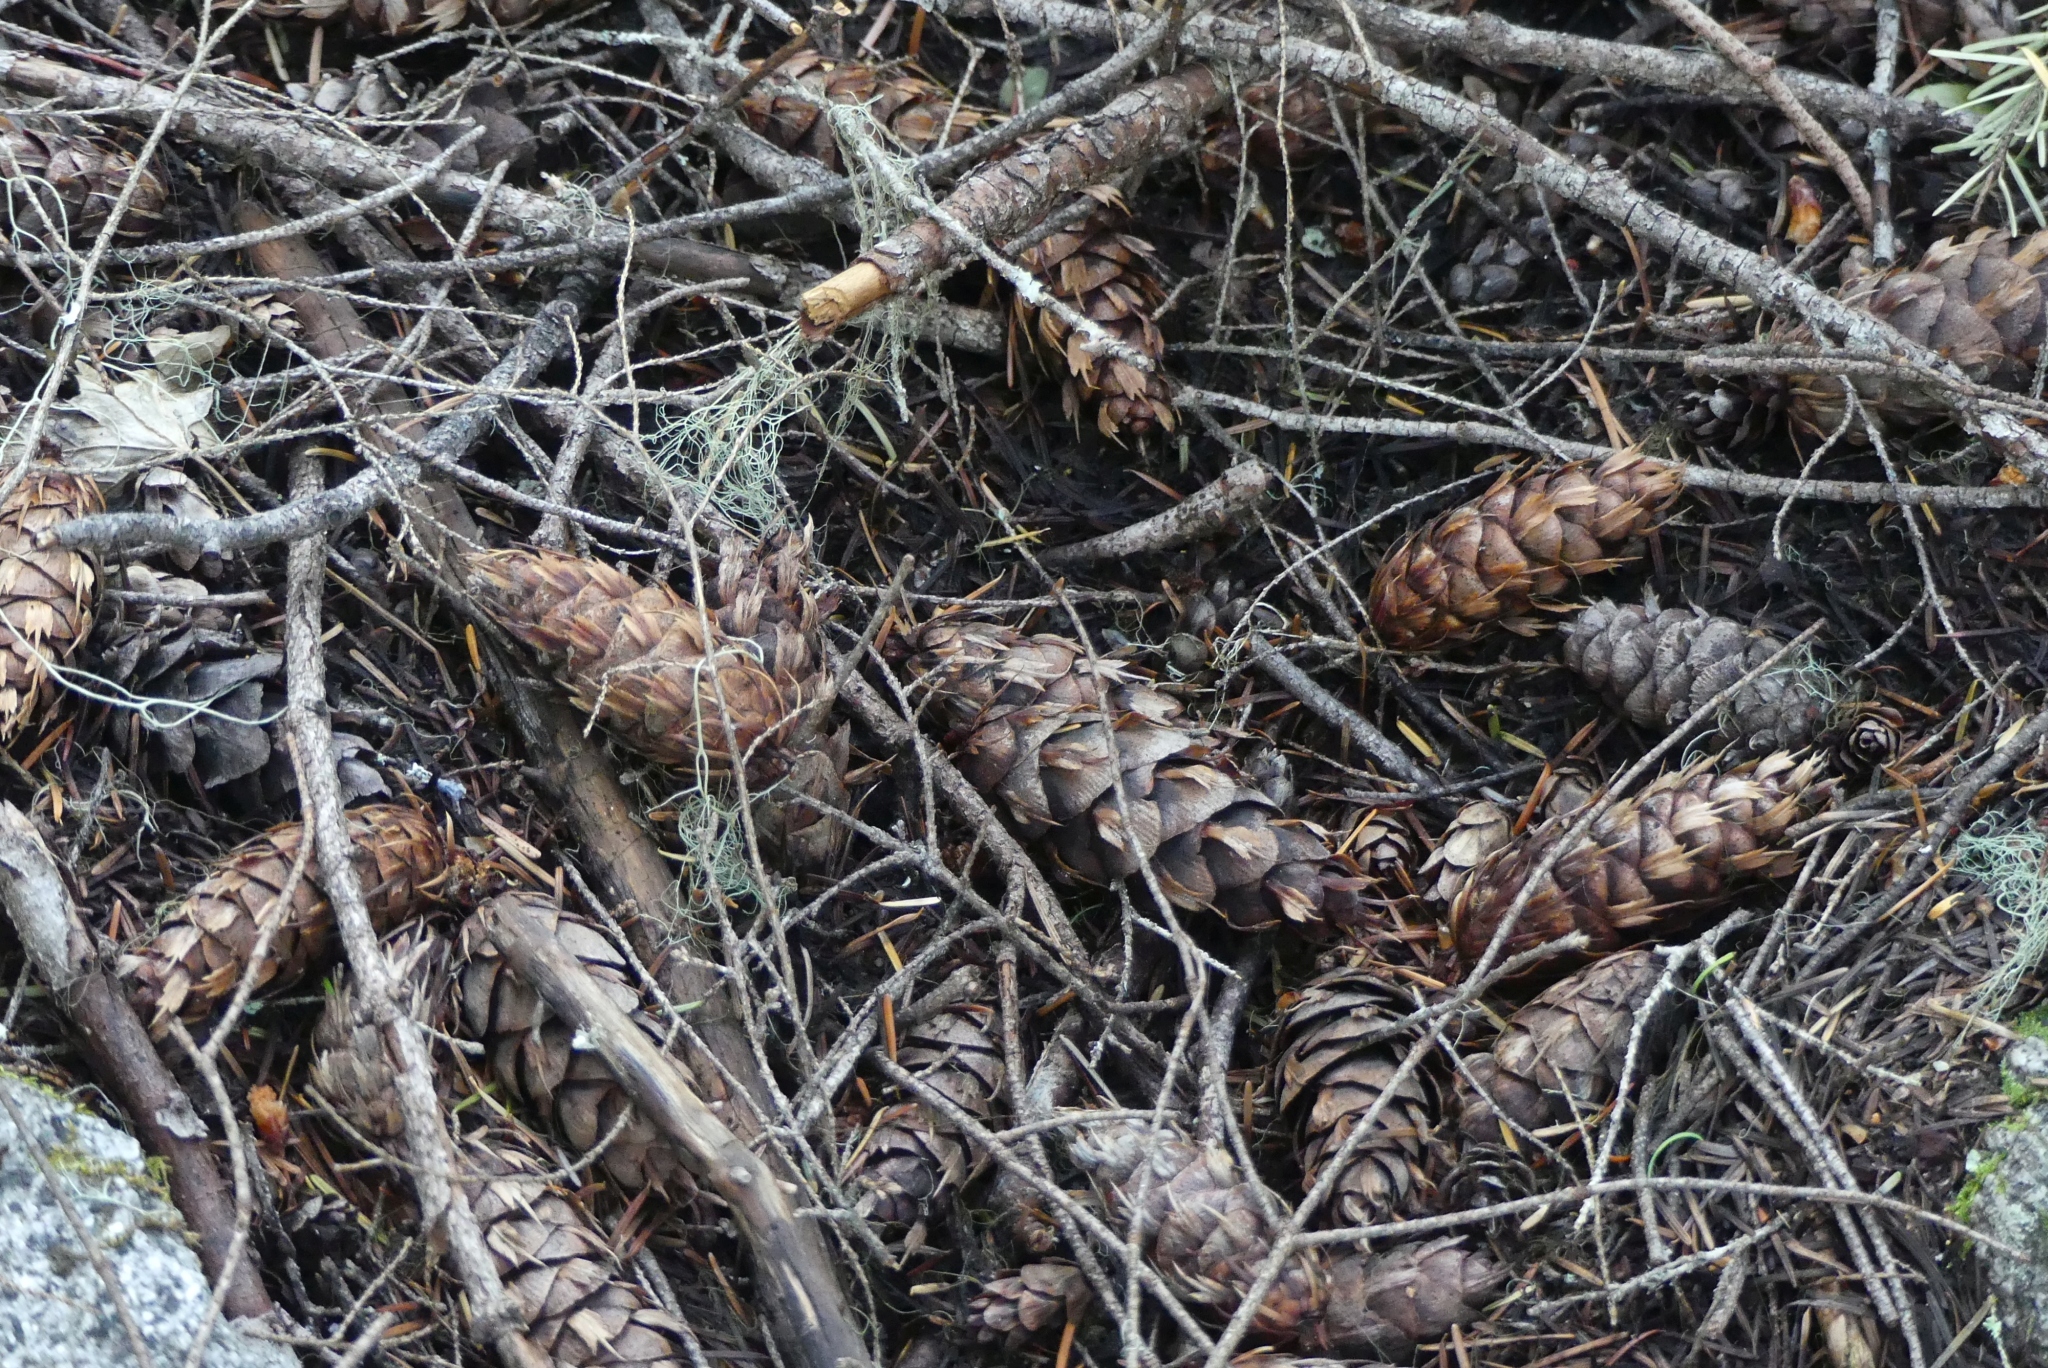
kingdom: Plantae
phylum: Tracheophyta
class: Pinopsida
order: Pinales
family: Pinaceae
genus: Pseudotsuga
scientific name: Pseudotsuga menziesii
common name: Douglas fir
